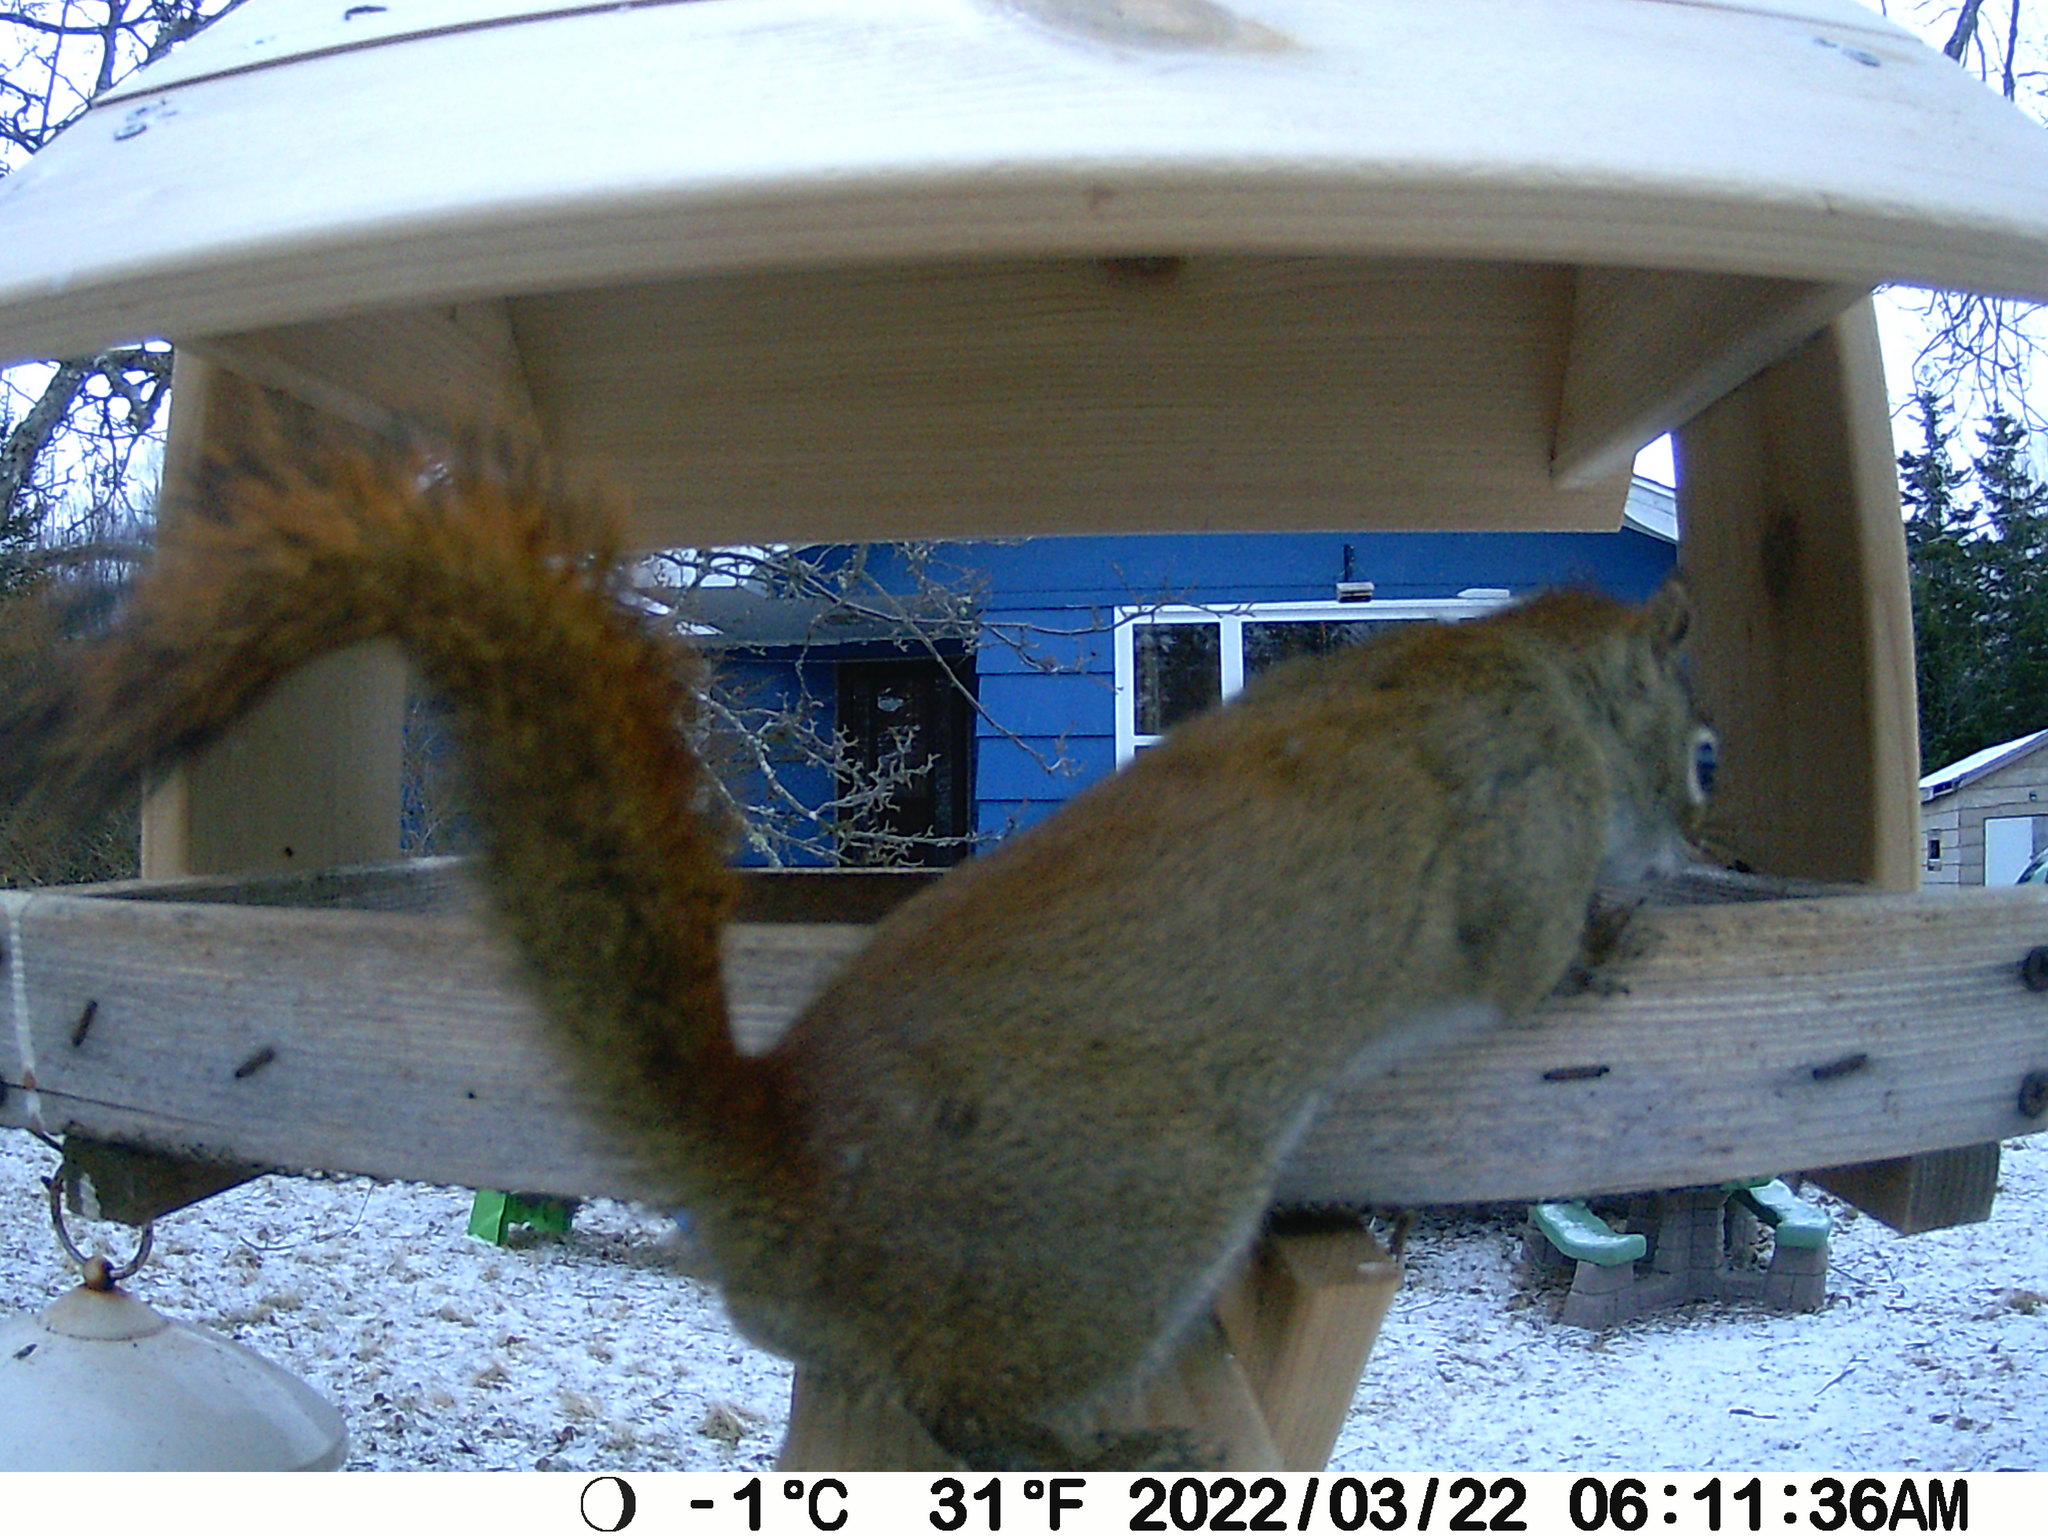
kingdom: Animalia
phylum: Chordata
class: Mammalia
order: Rodentia
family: Sciuridae
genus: Tamiasciurus
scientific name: Tamiasciurus hudsonicus
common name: Red squirrel
